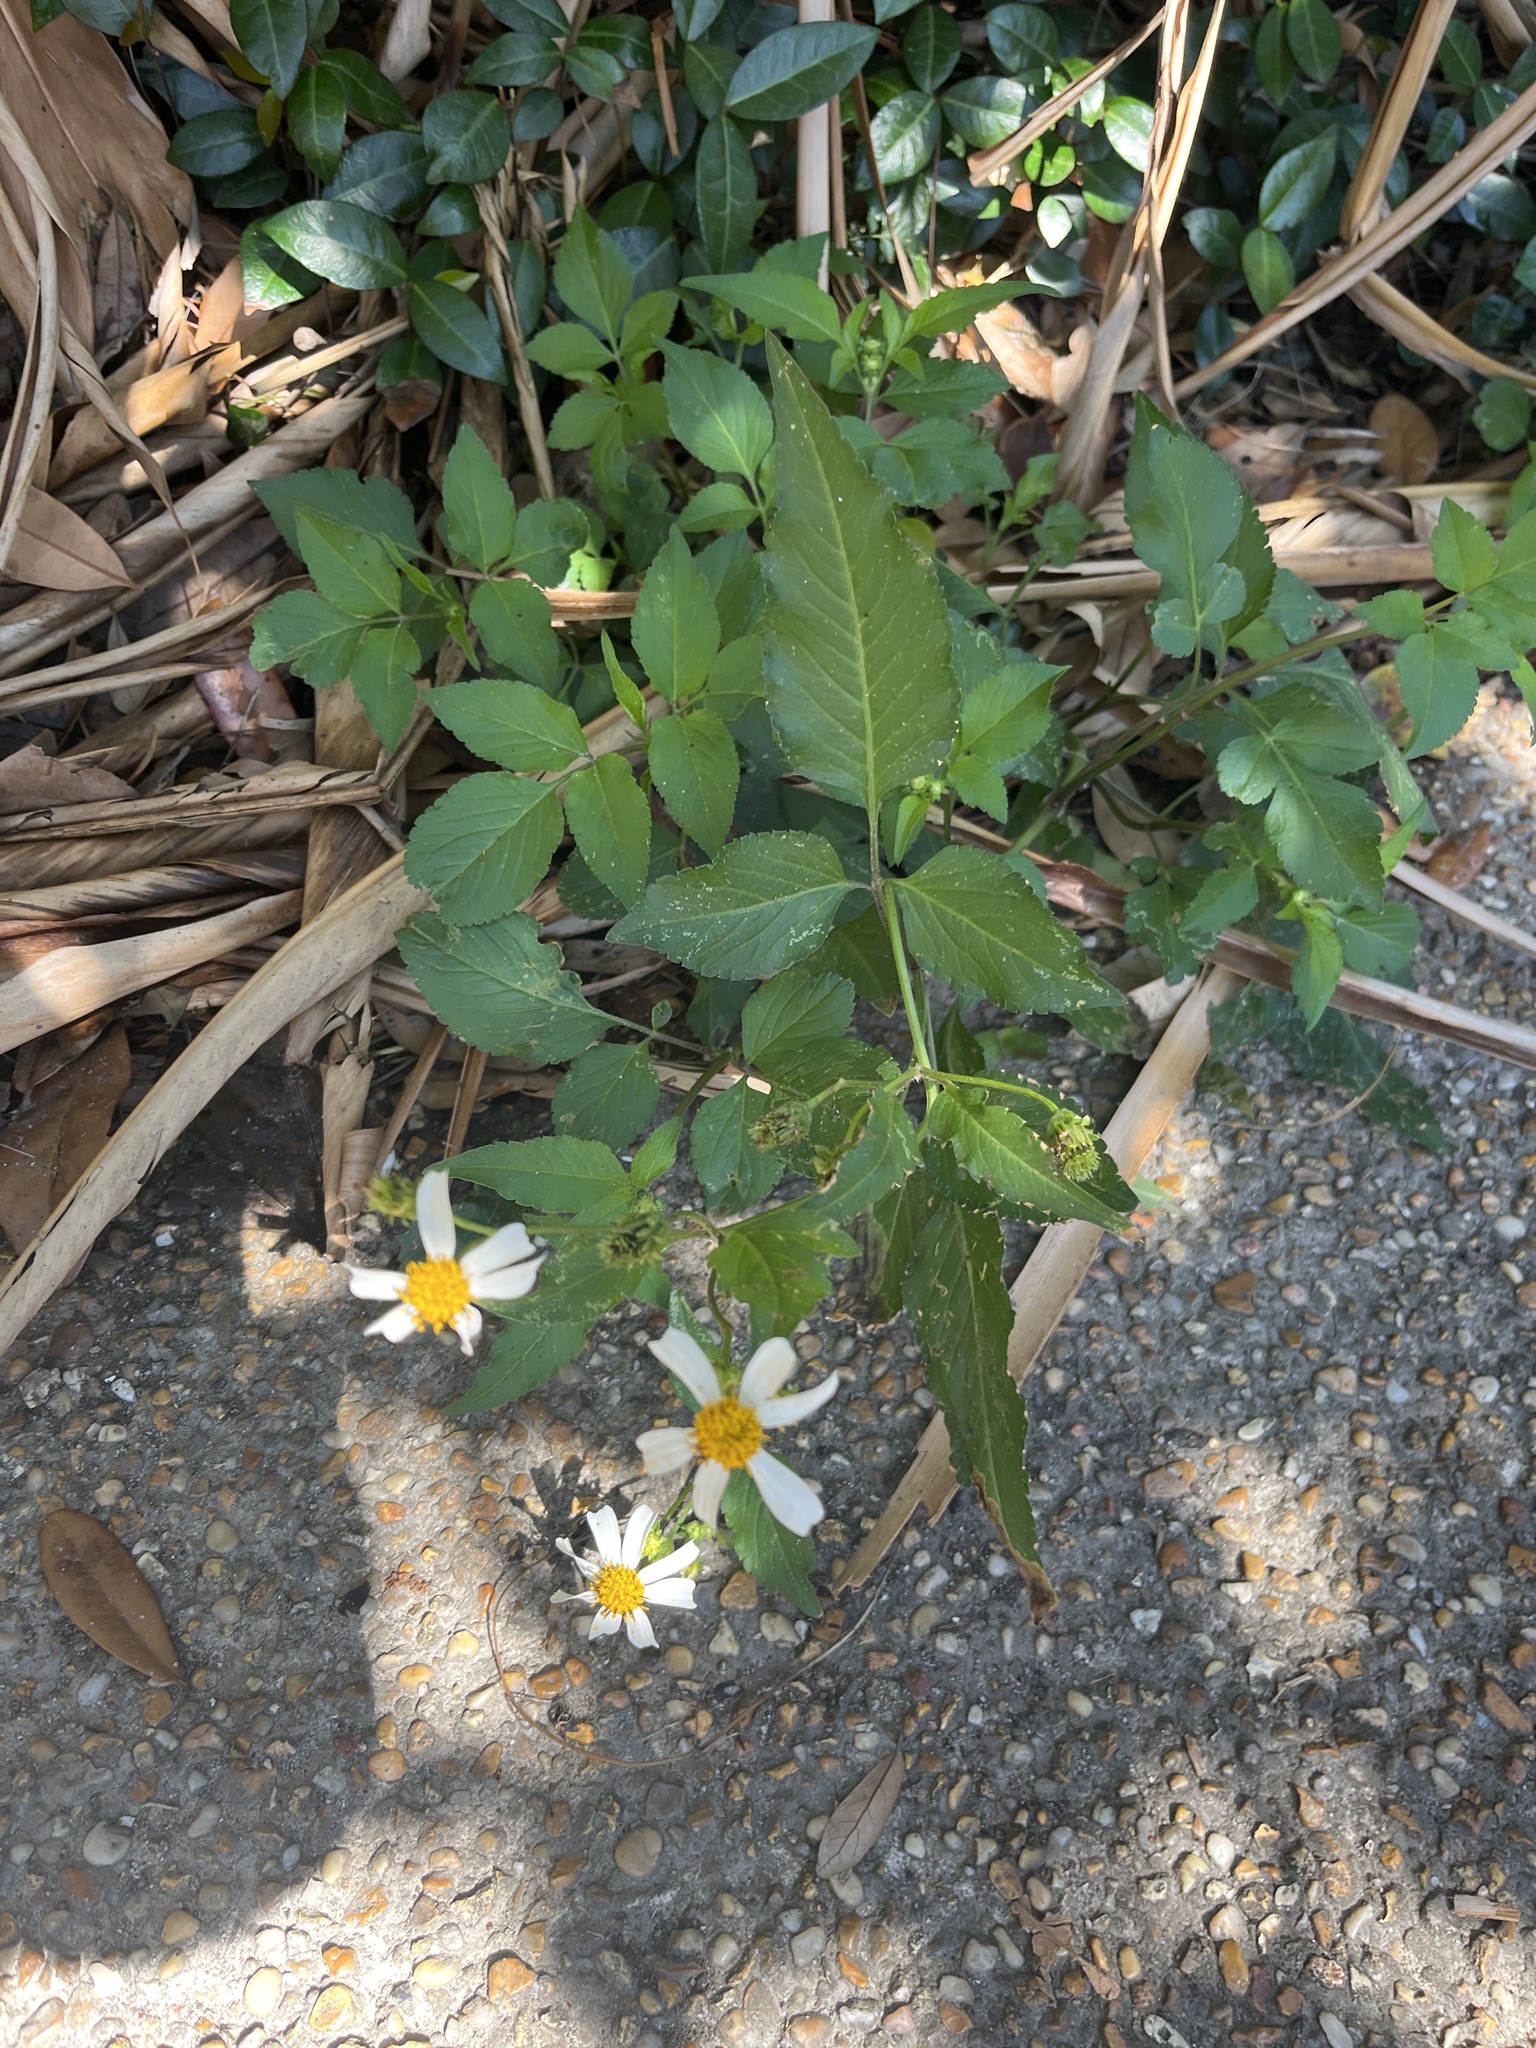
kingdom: Plantae
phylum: Tracheophyta
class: Magnoliopsida
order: Asterales
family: Asteraceae
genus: Bidens
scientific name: Bidens alba
